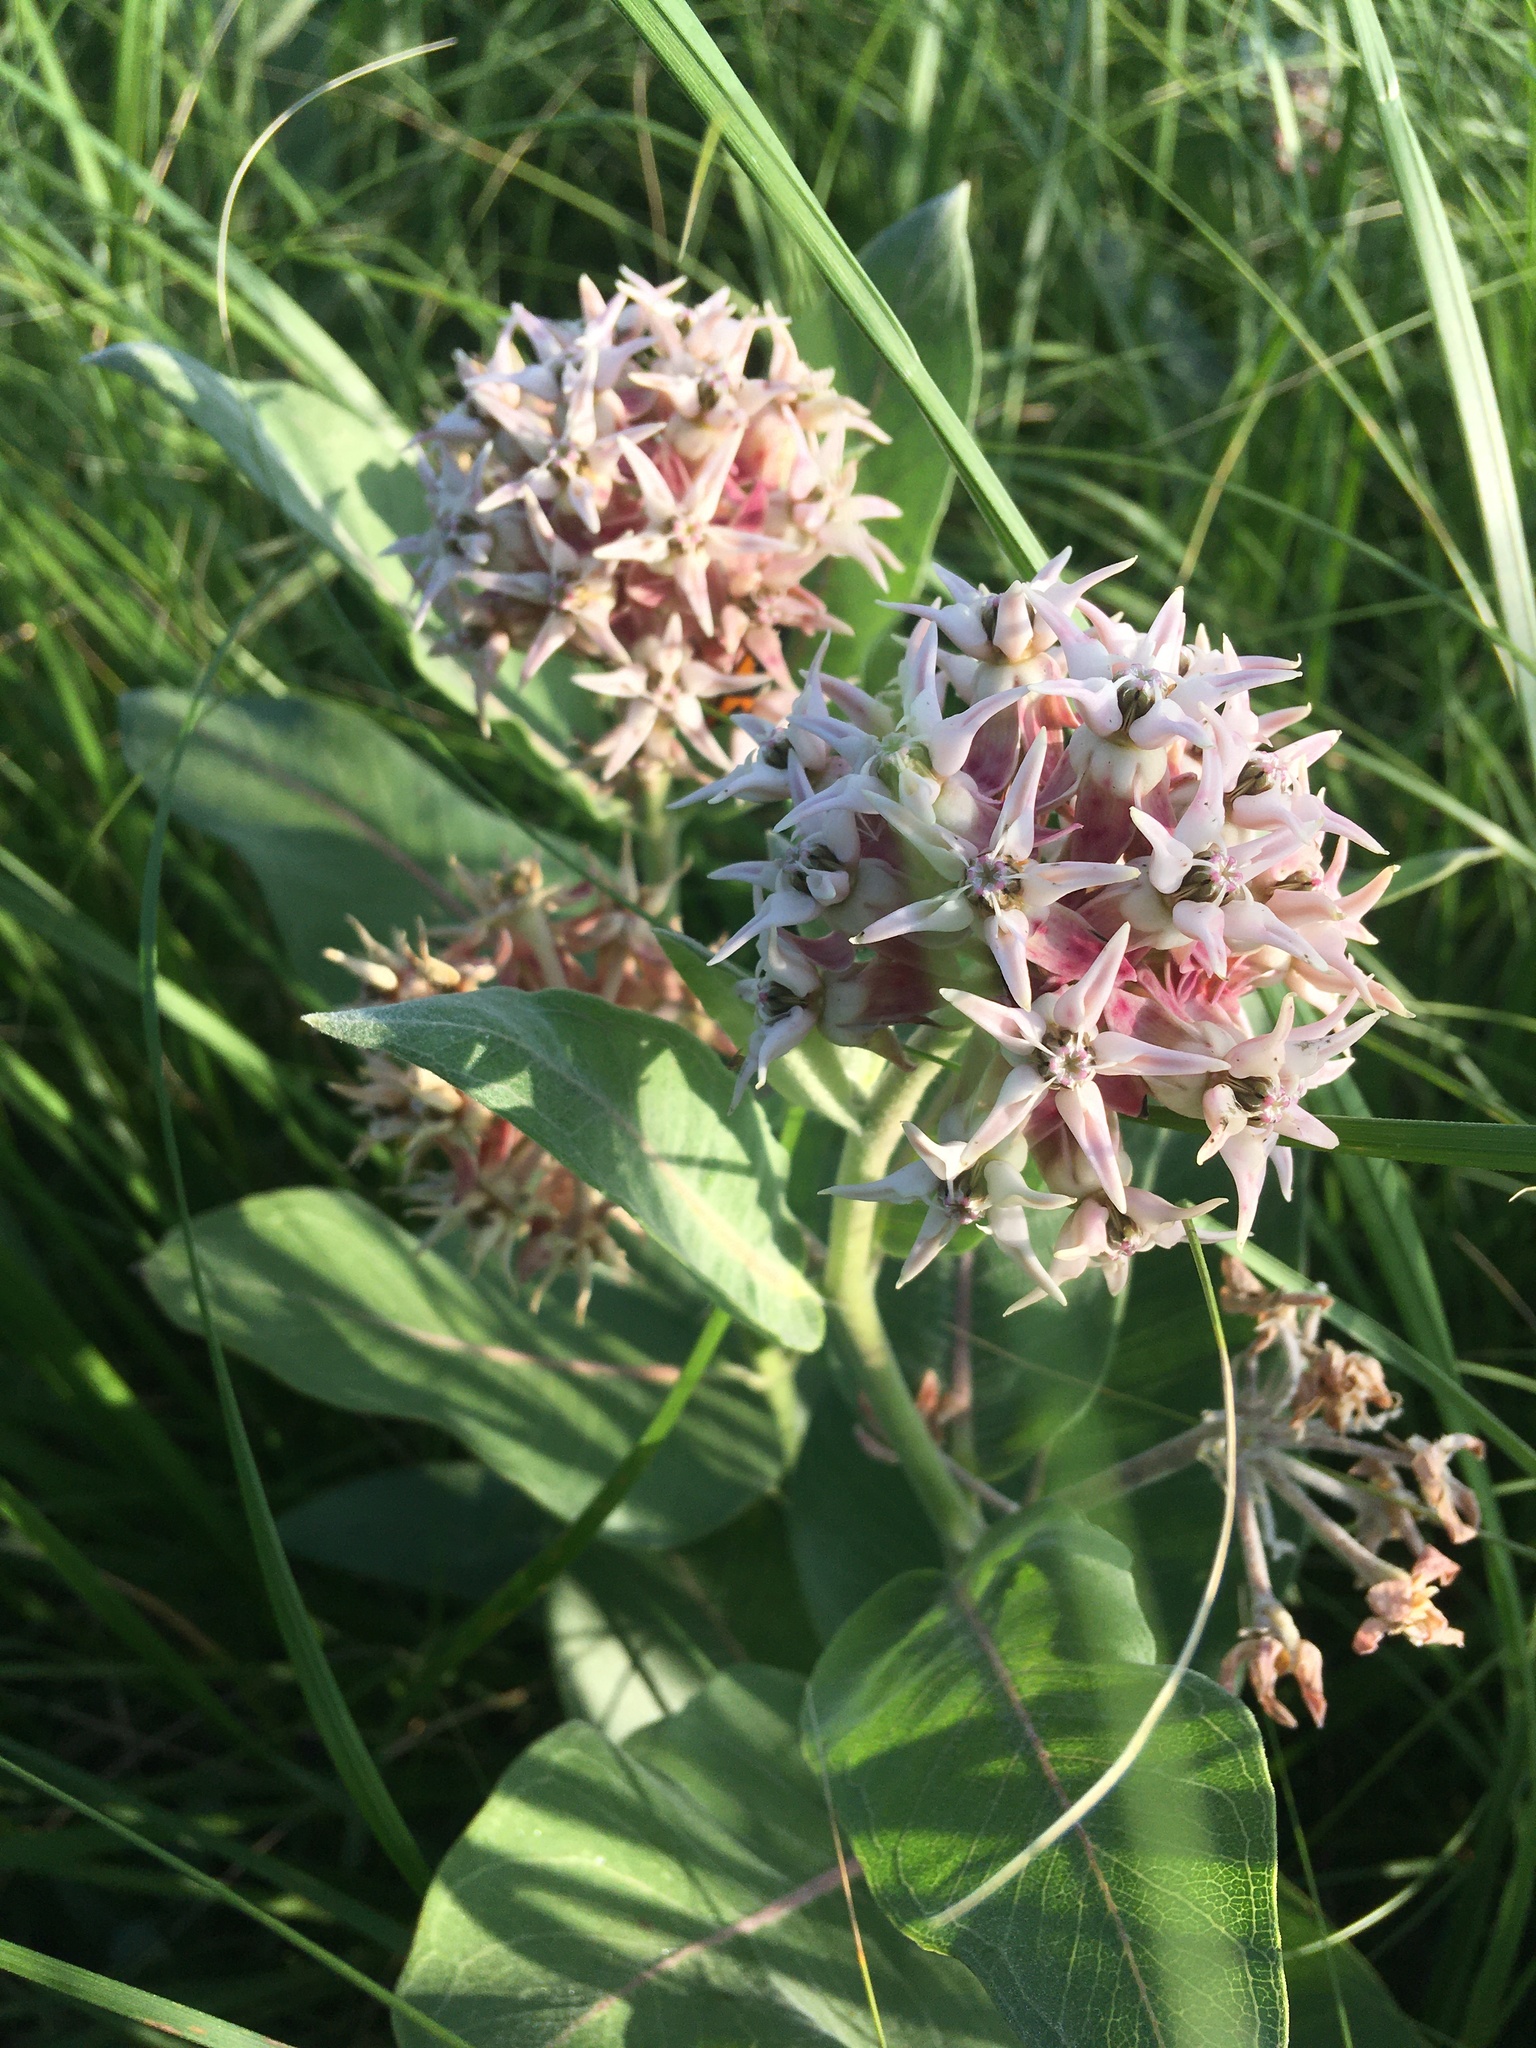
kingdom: Plantae
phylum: Tracheophyta
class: Magnoliopsida
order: Gentianales
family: Apocynaceae
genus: Asclepias
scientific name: Asclepias speciosa
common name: Showy milkweed
